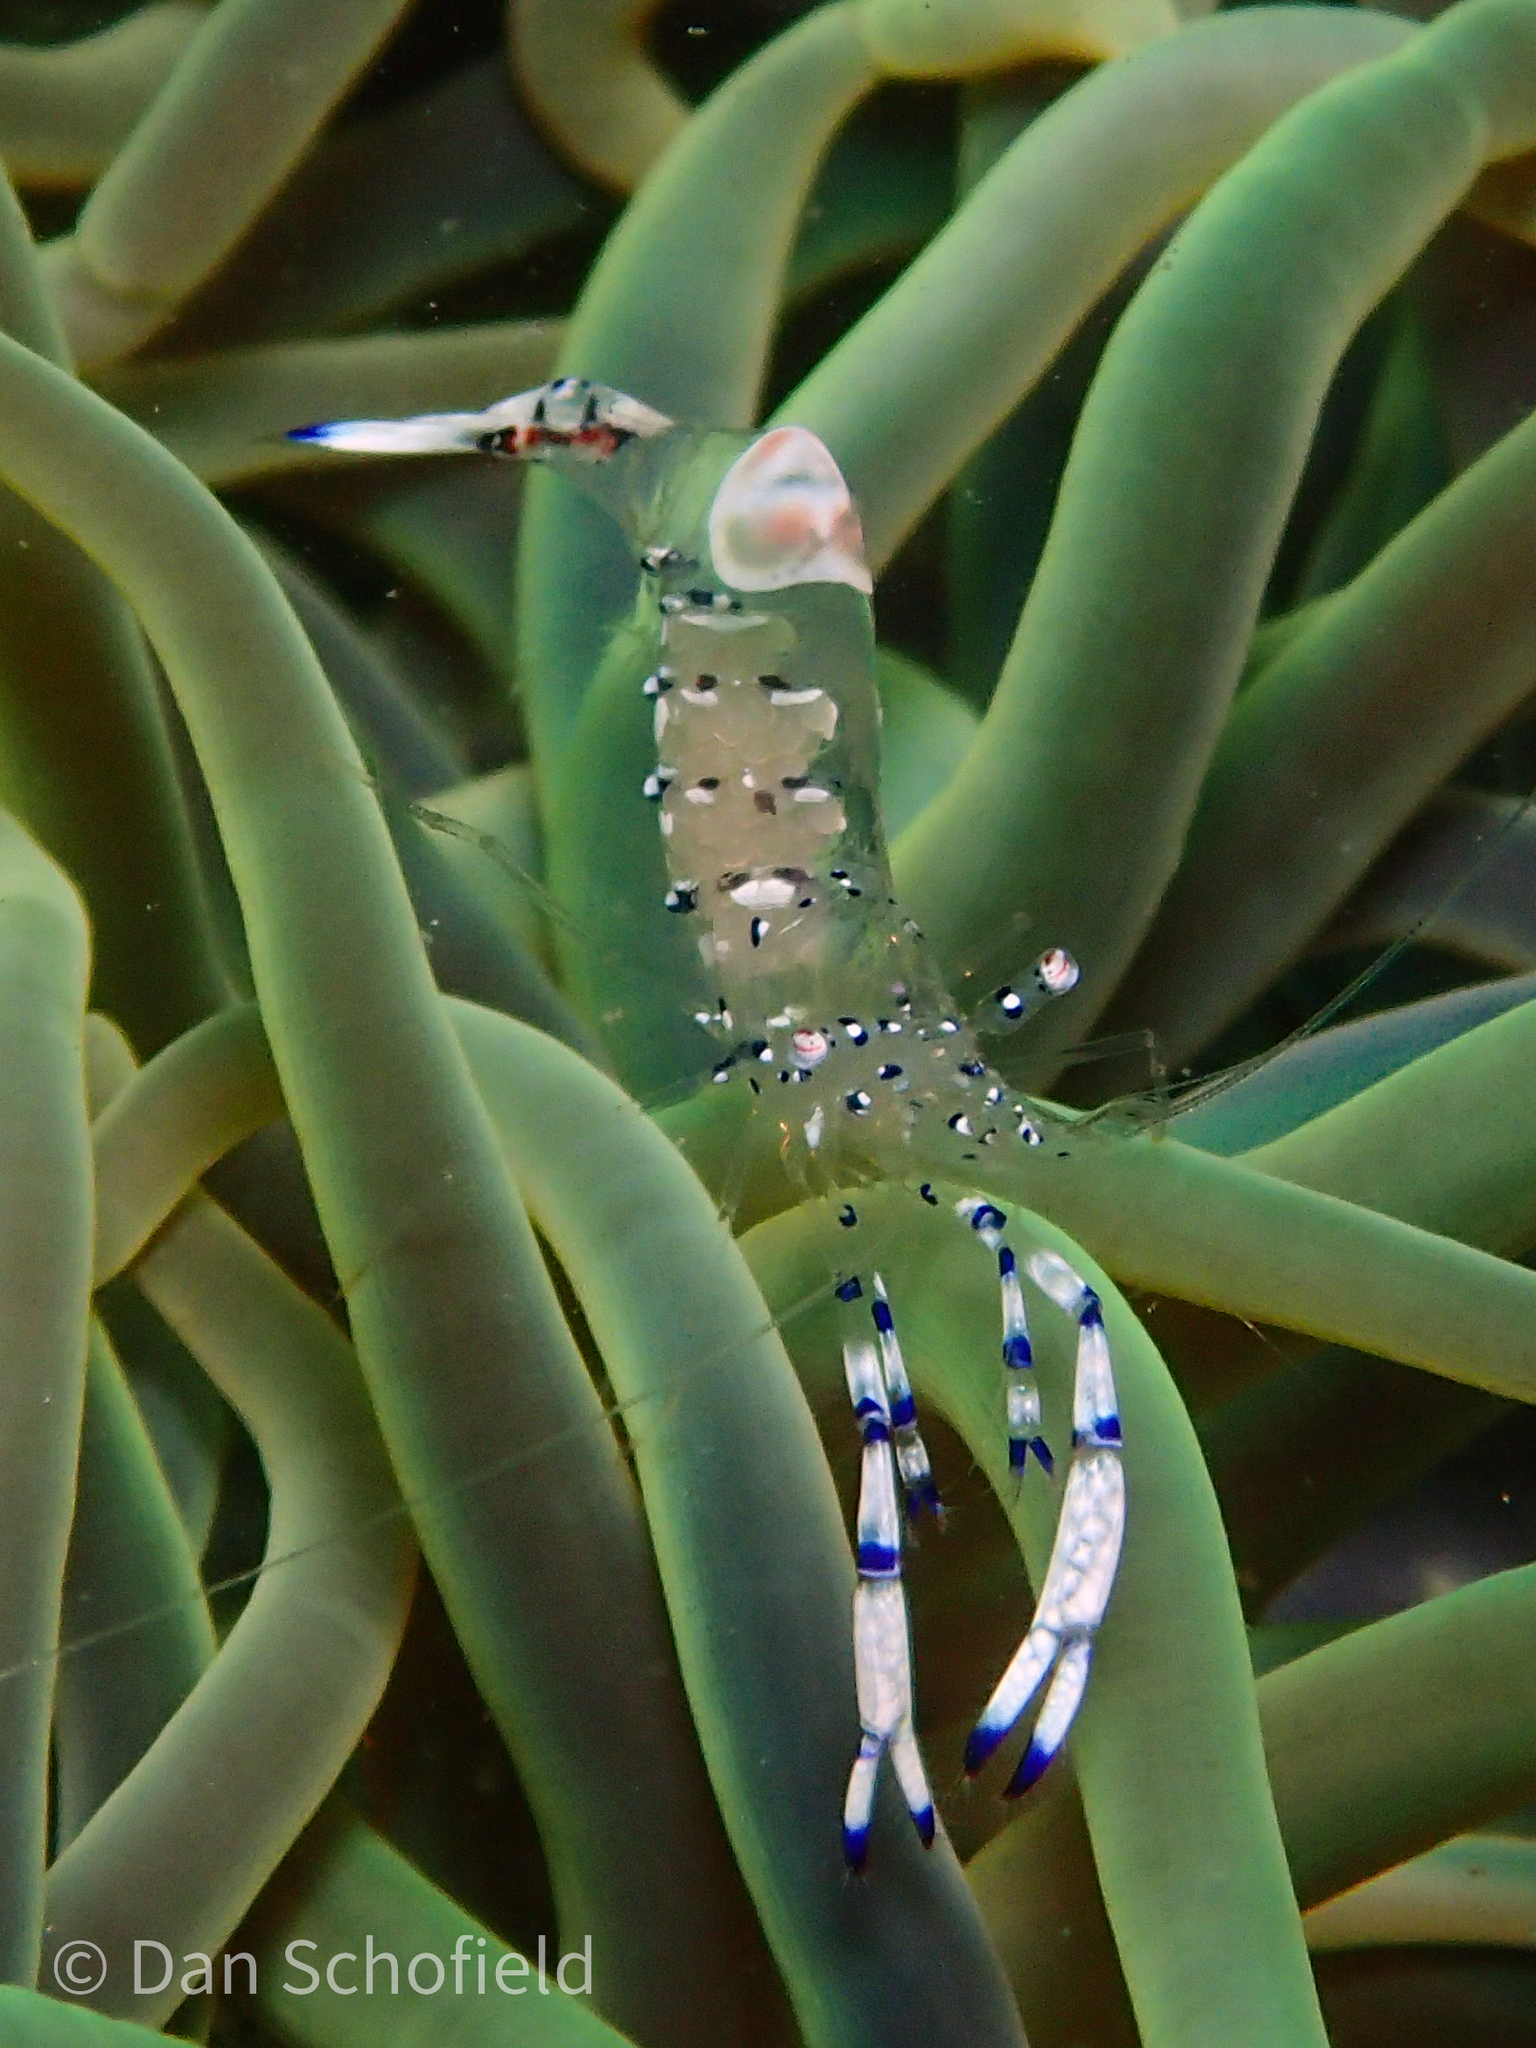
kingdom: Animalia
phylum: Arthropoda
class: Malacostraca
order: Decapoda
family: Palaemonidae
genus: Ancylomenes
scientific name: Ancylomenes venustus
